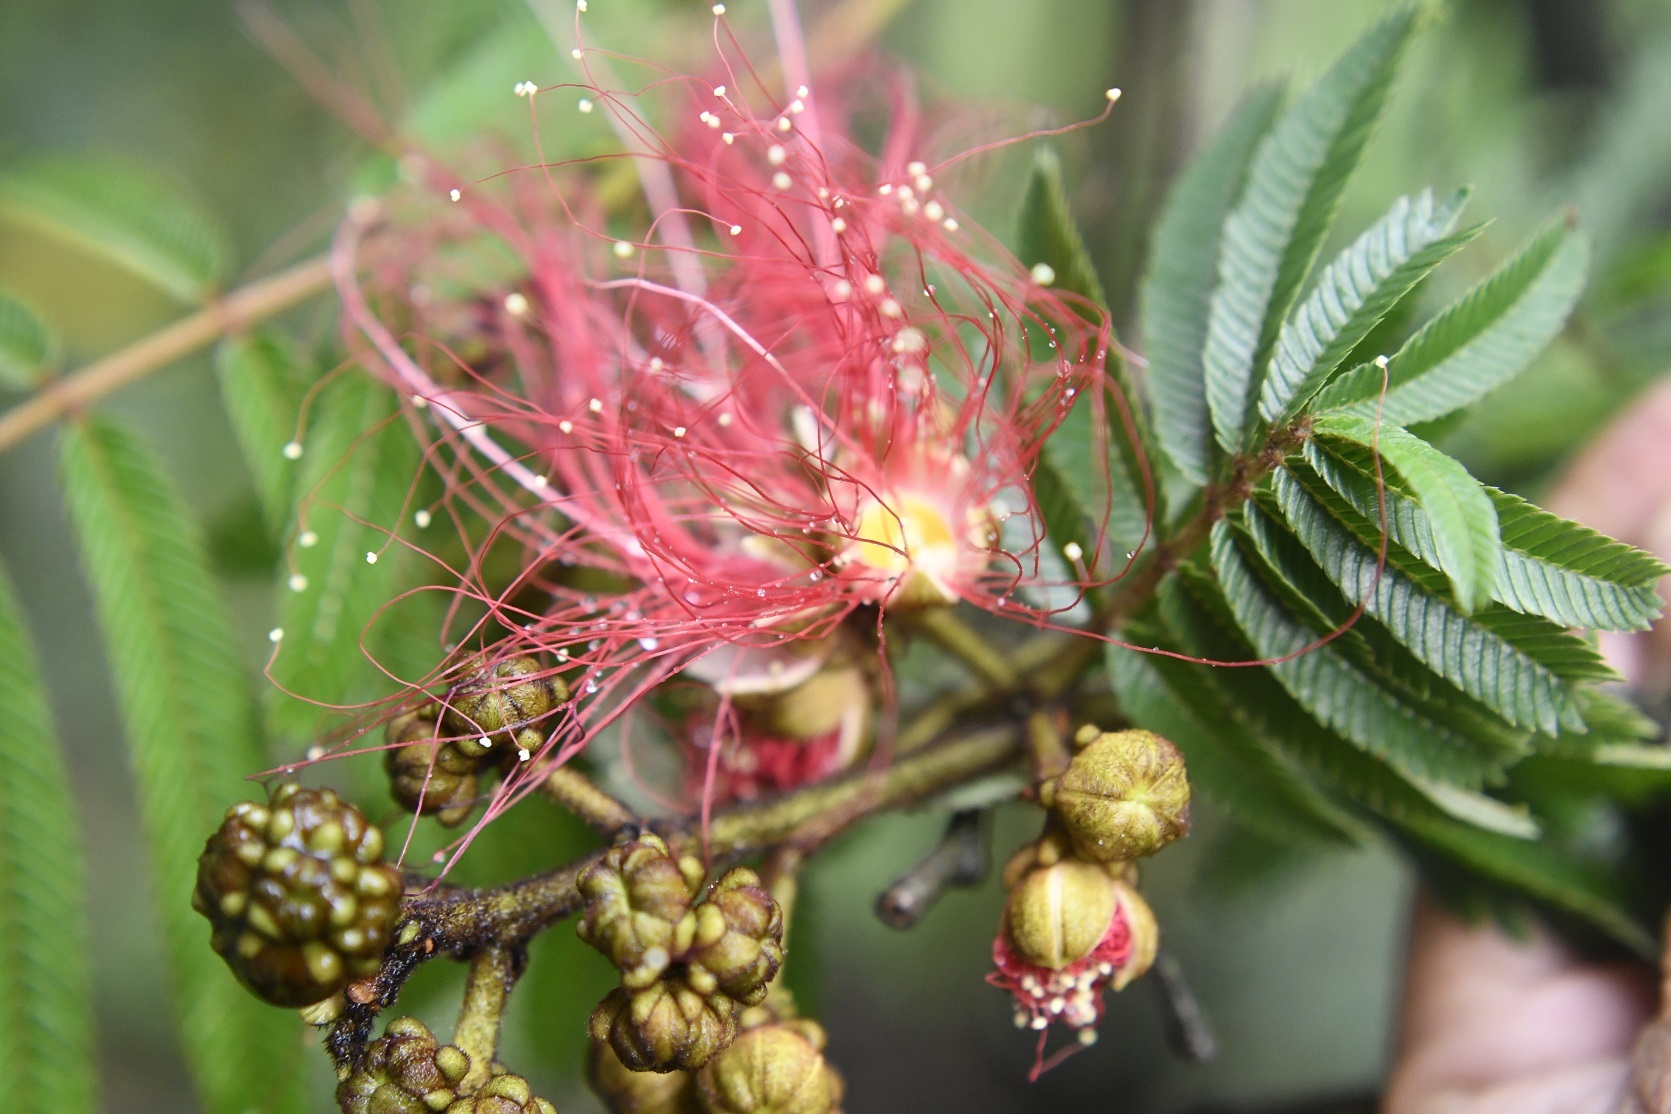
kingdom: Plantae
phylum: Tracheophyta
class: Magnoliopsida
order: Fabales
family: Fabaceae
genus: Calliandra
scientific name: Calliandra houstoniana
